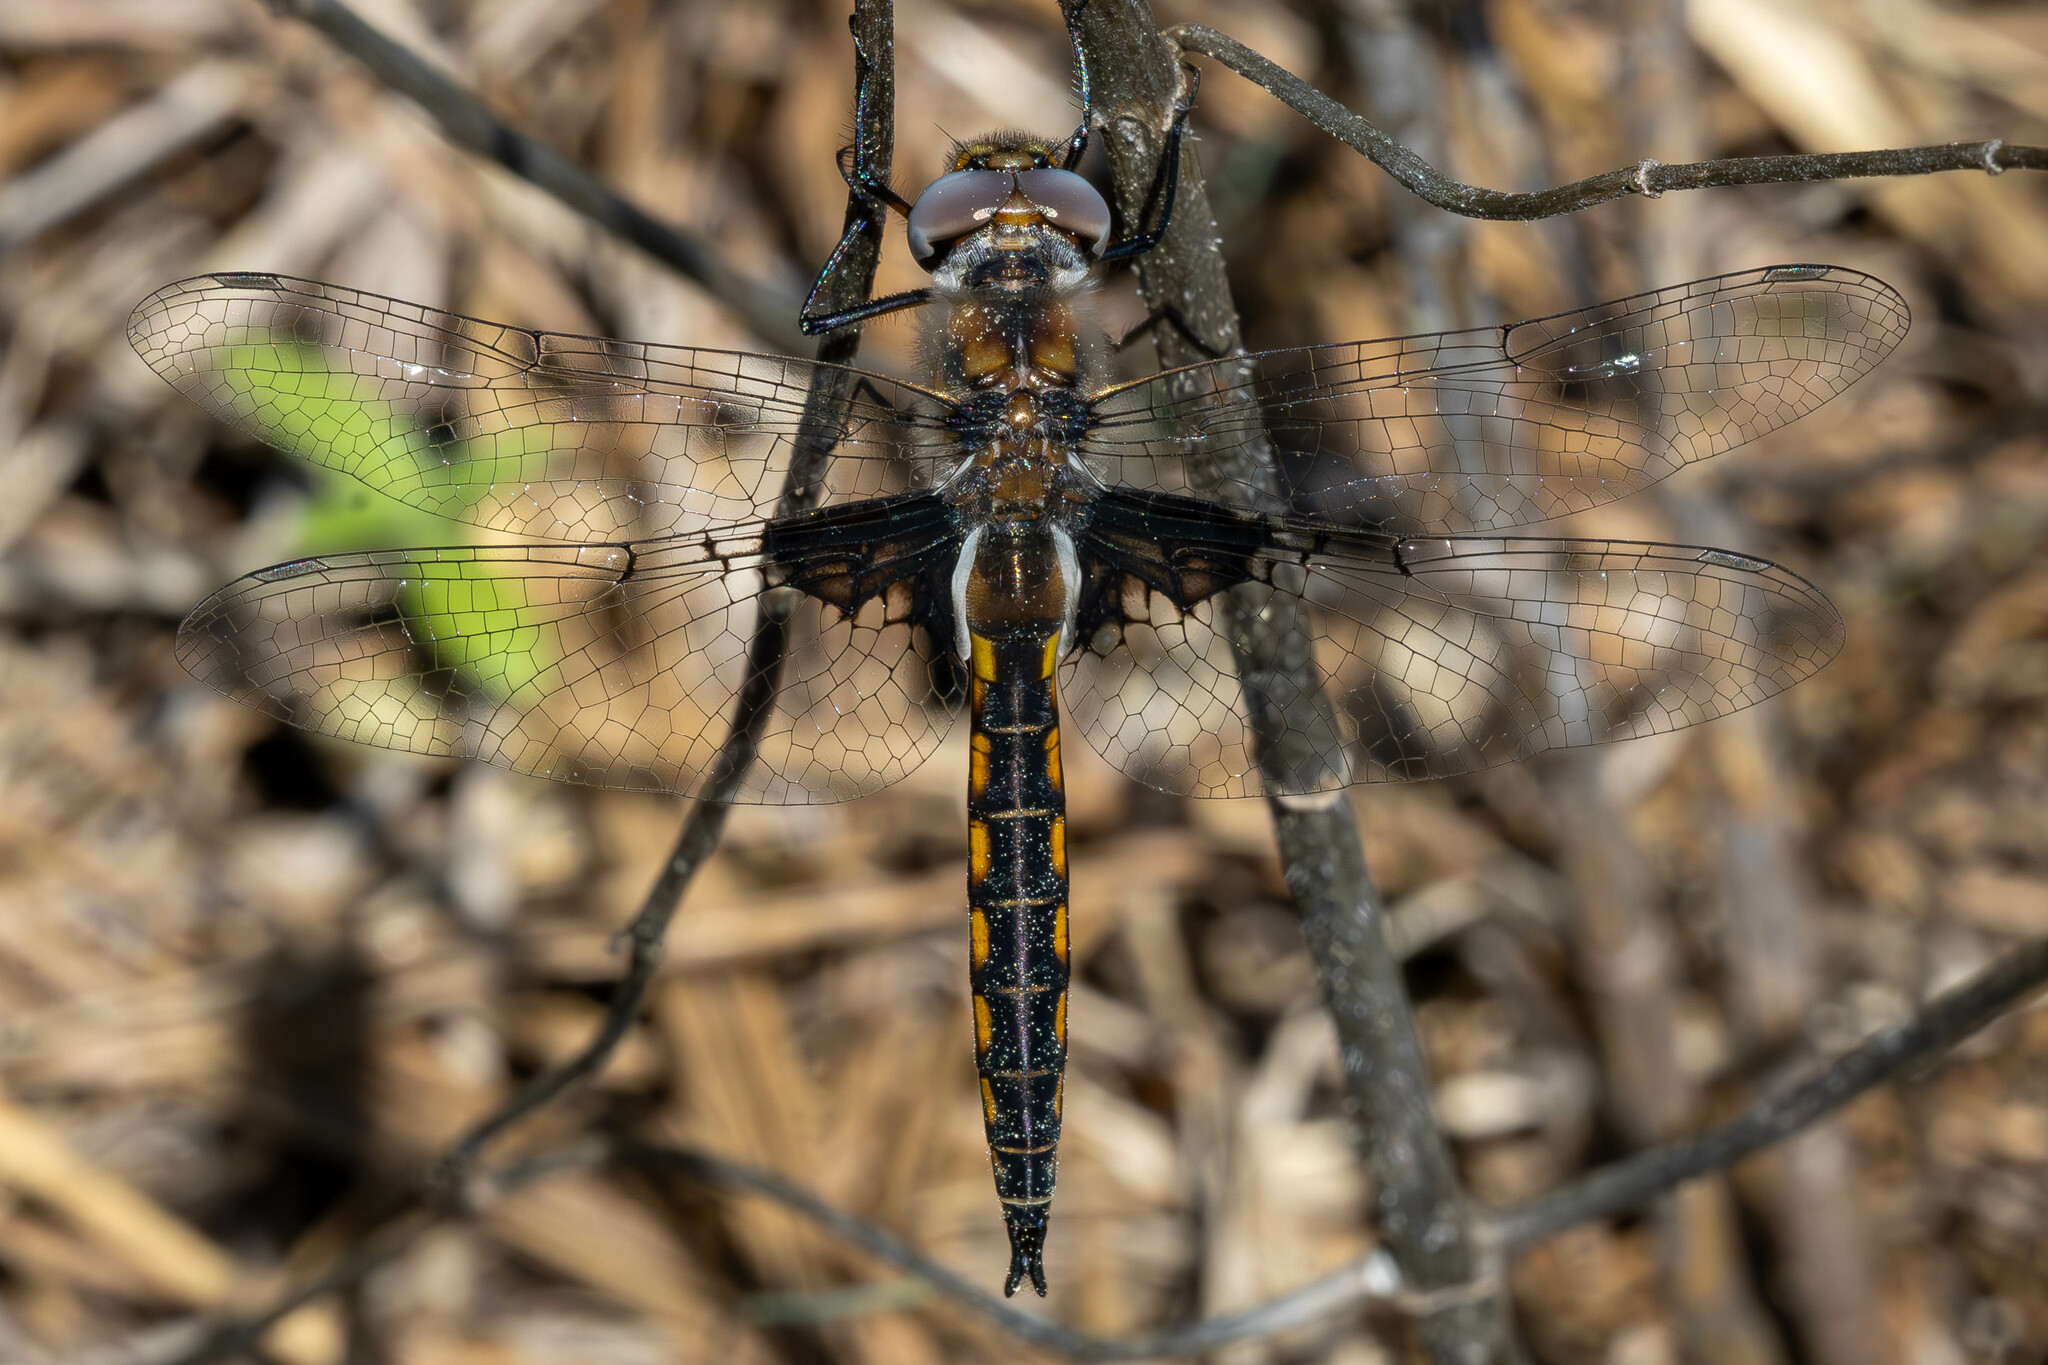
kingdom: Animalia
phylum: Arthropoda
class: Insecta
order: Odonata
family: Corduliidae
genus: Epitheca
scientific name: Epitheca cynosura
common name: Common baskettail
